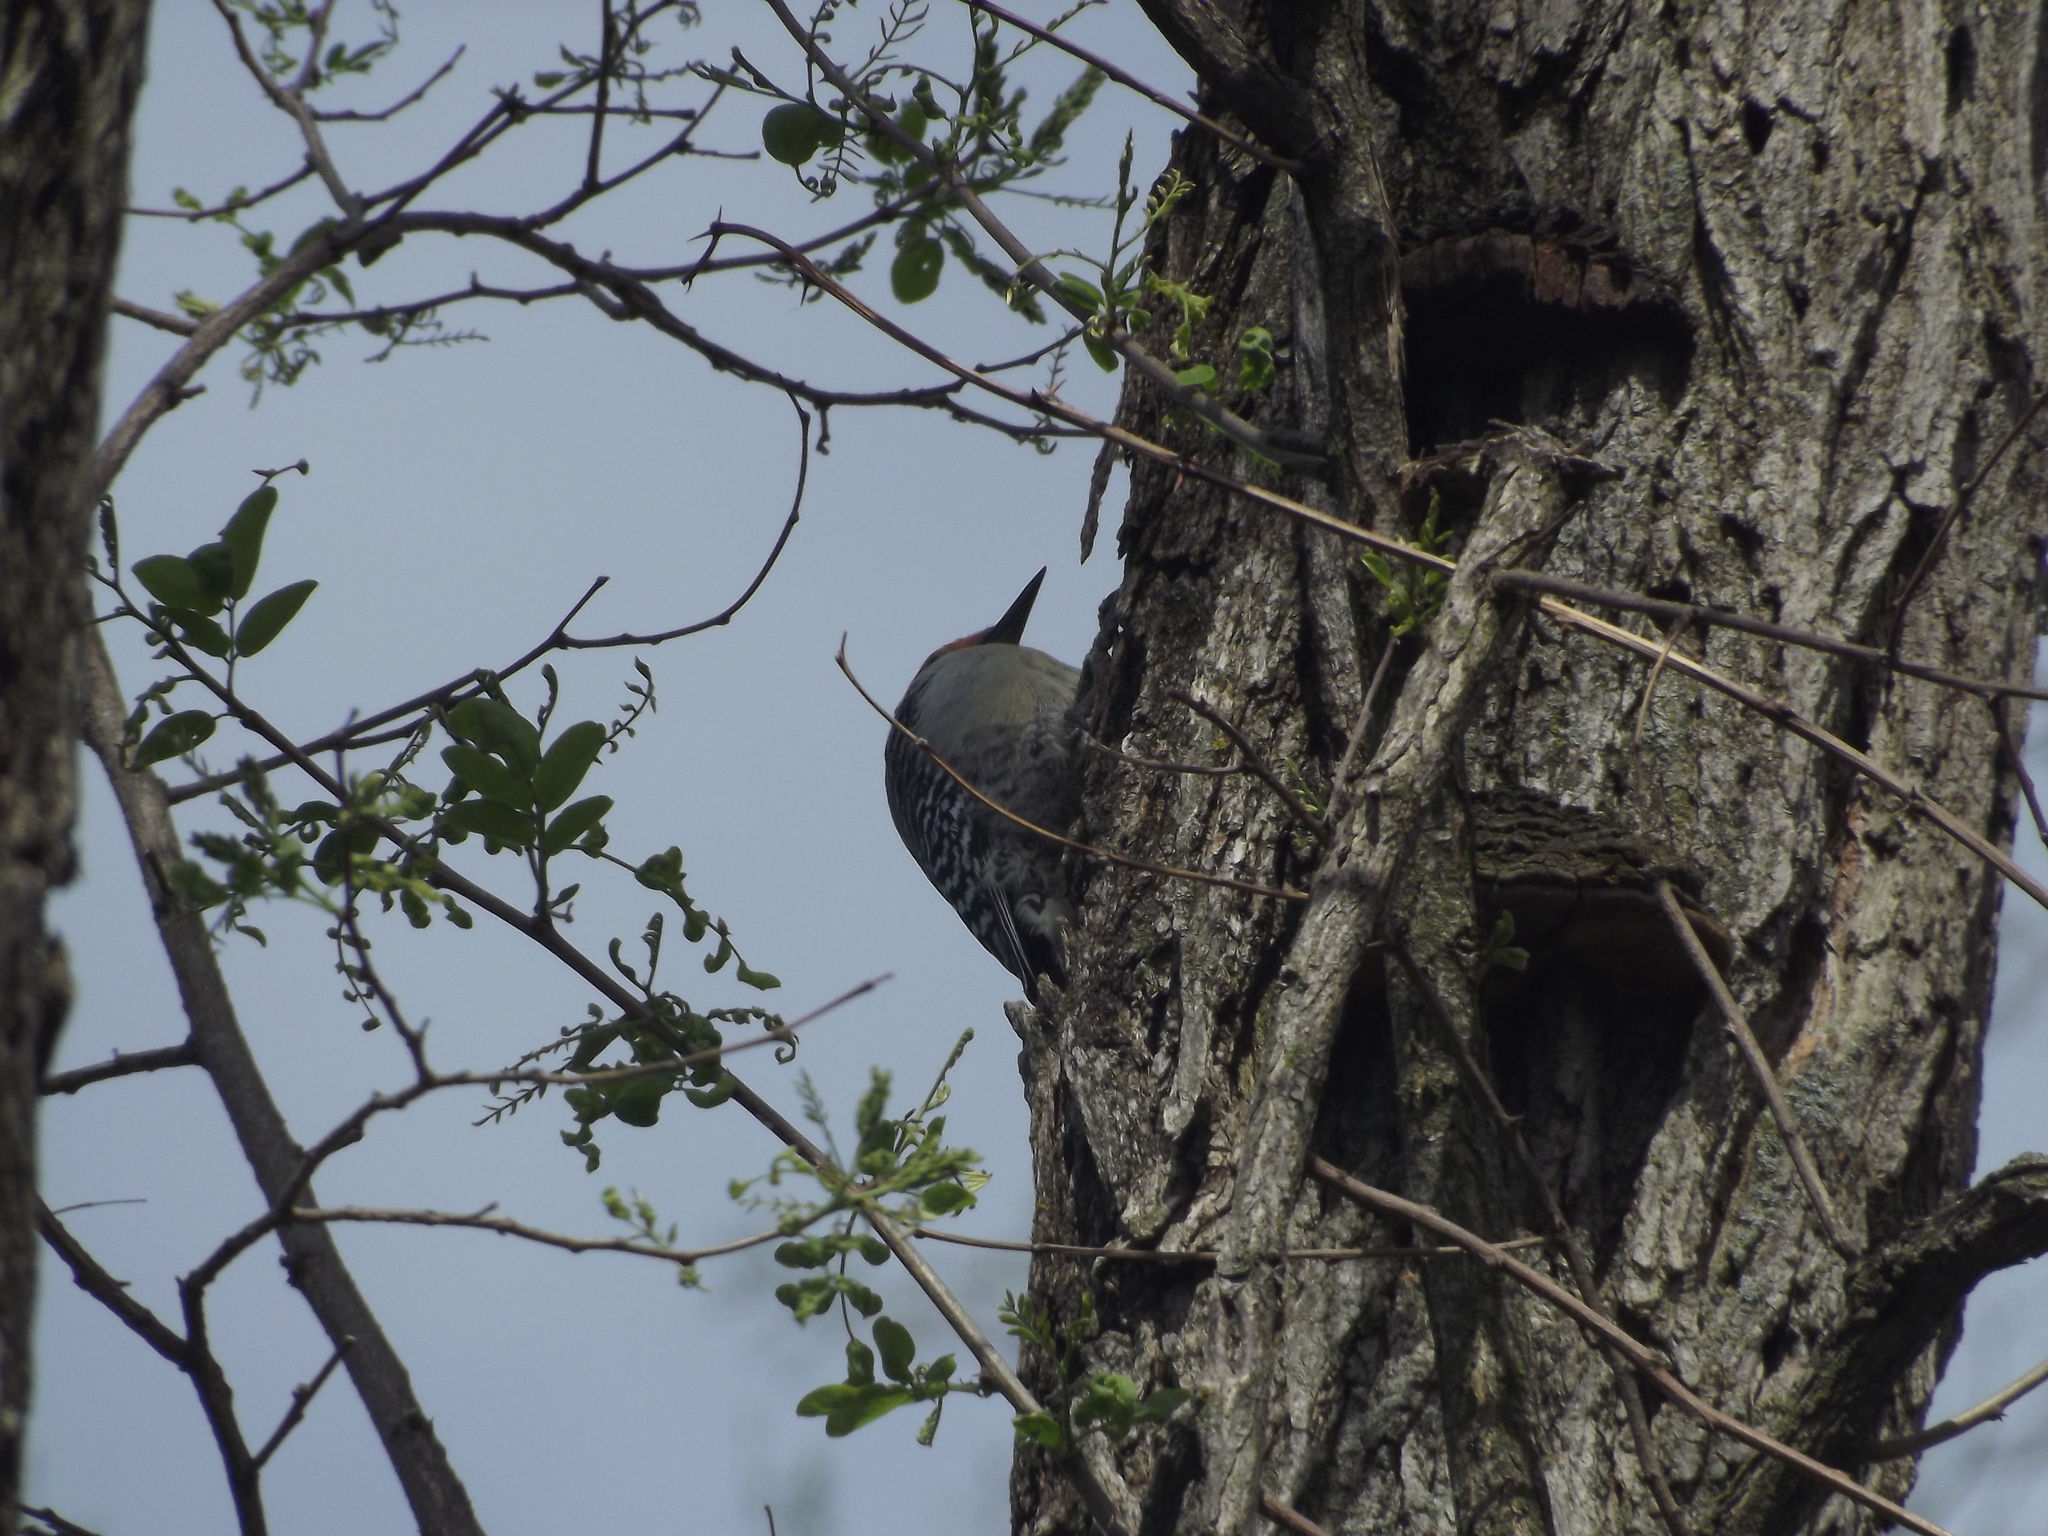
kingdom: Animalia
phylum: Chordata
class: Aves
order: Piciformes
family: Picidae
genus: Melanerpes
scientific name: Melanerpes carolinus
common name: Red-bellied woodpecker
